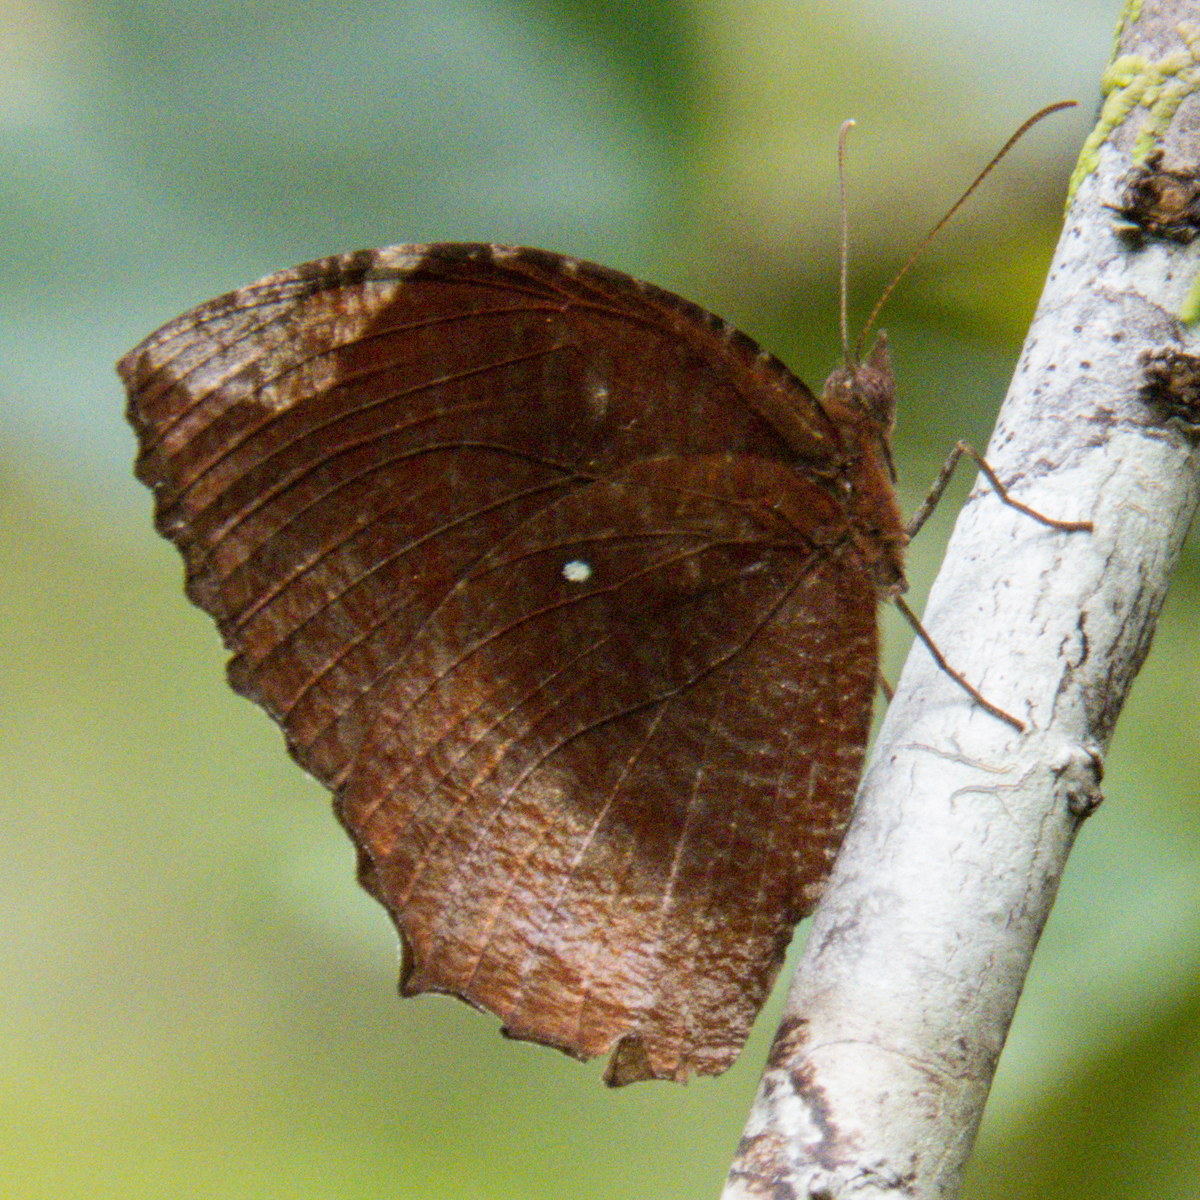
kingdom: Animalia
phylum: Arthropoda
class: Insecta
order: Lepidoptera
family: Nymphalidae
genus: Elymnias
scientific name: Elymnias hypermnestra
